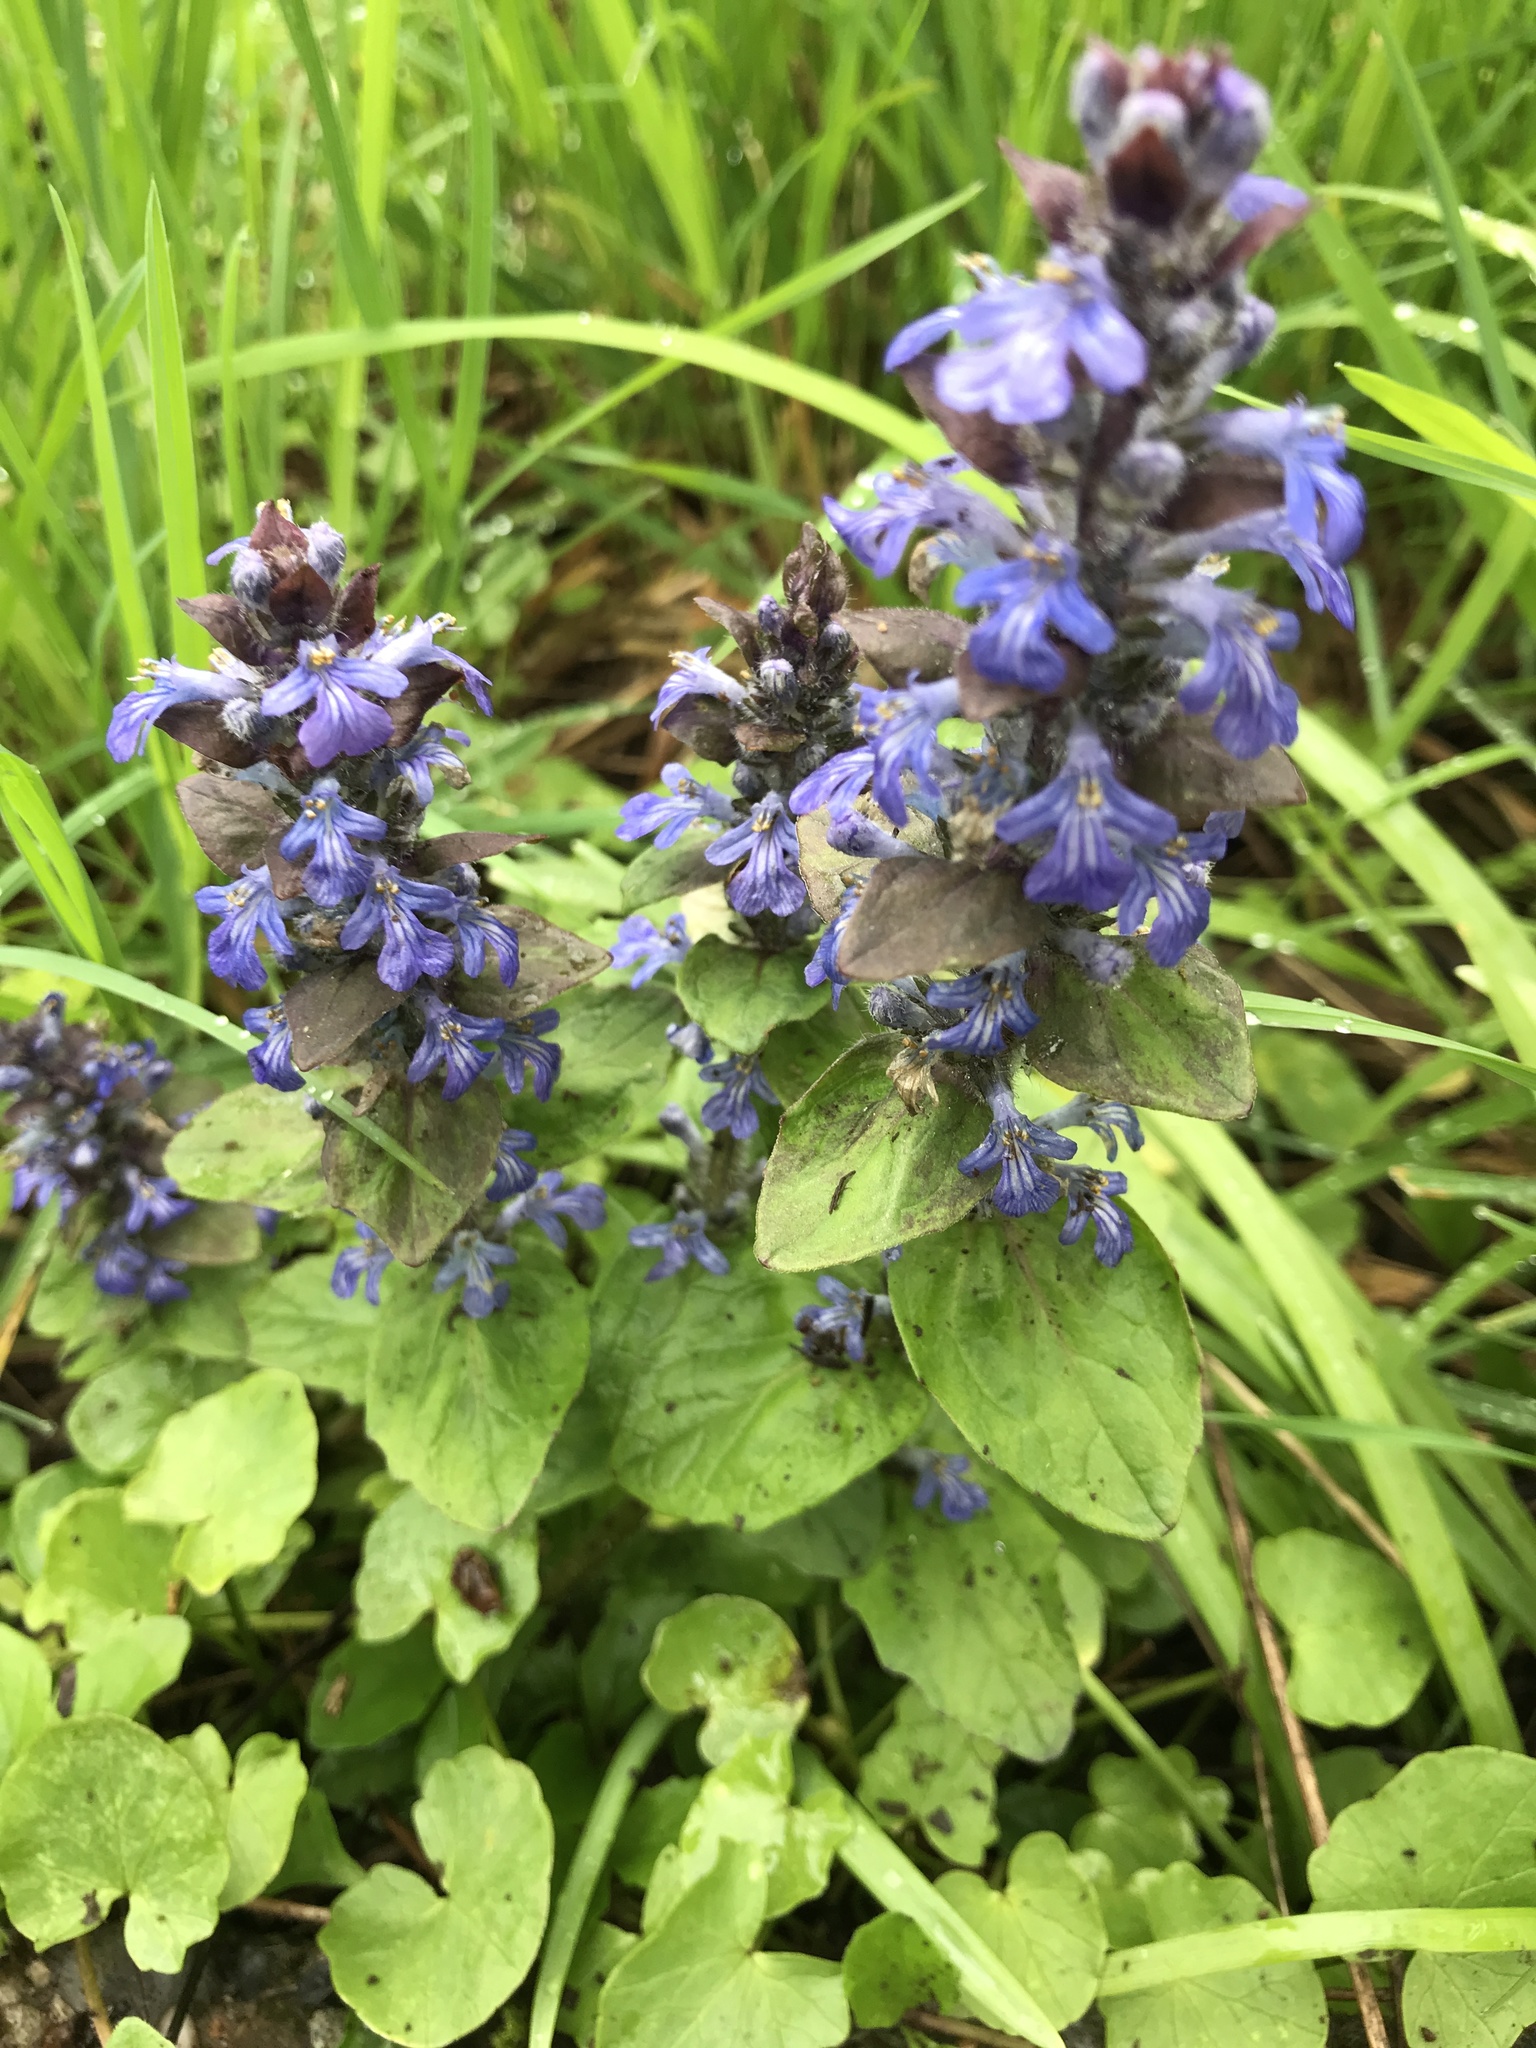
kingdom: Plantae
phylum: Tracheophyta
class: Magnoliopsida
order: Lamiales
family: Lamiaceae
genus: Ajuga
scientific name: Ajuga reptans
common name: Bugle
